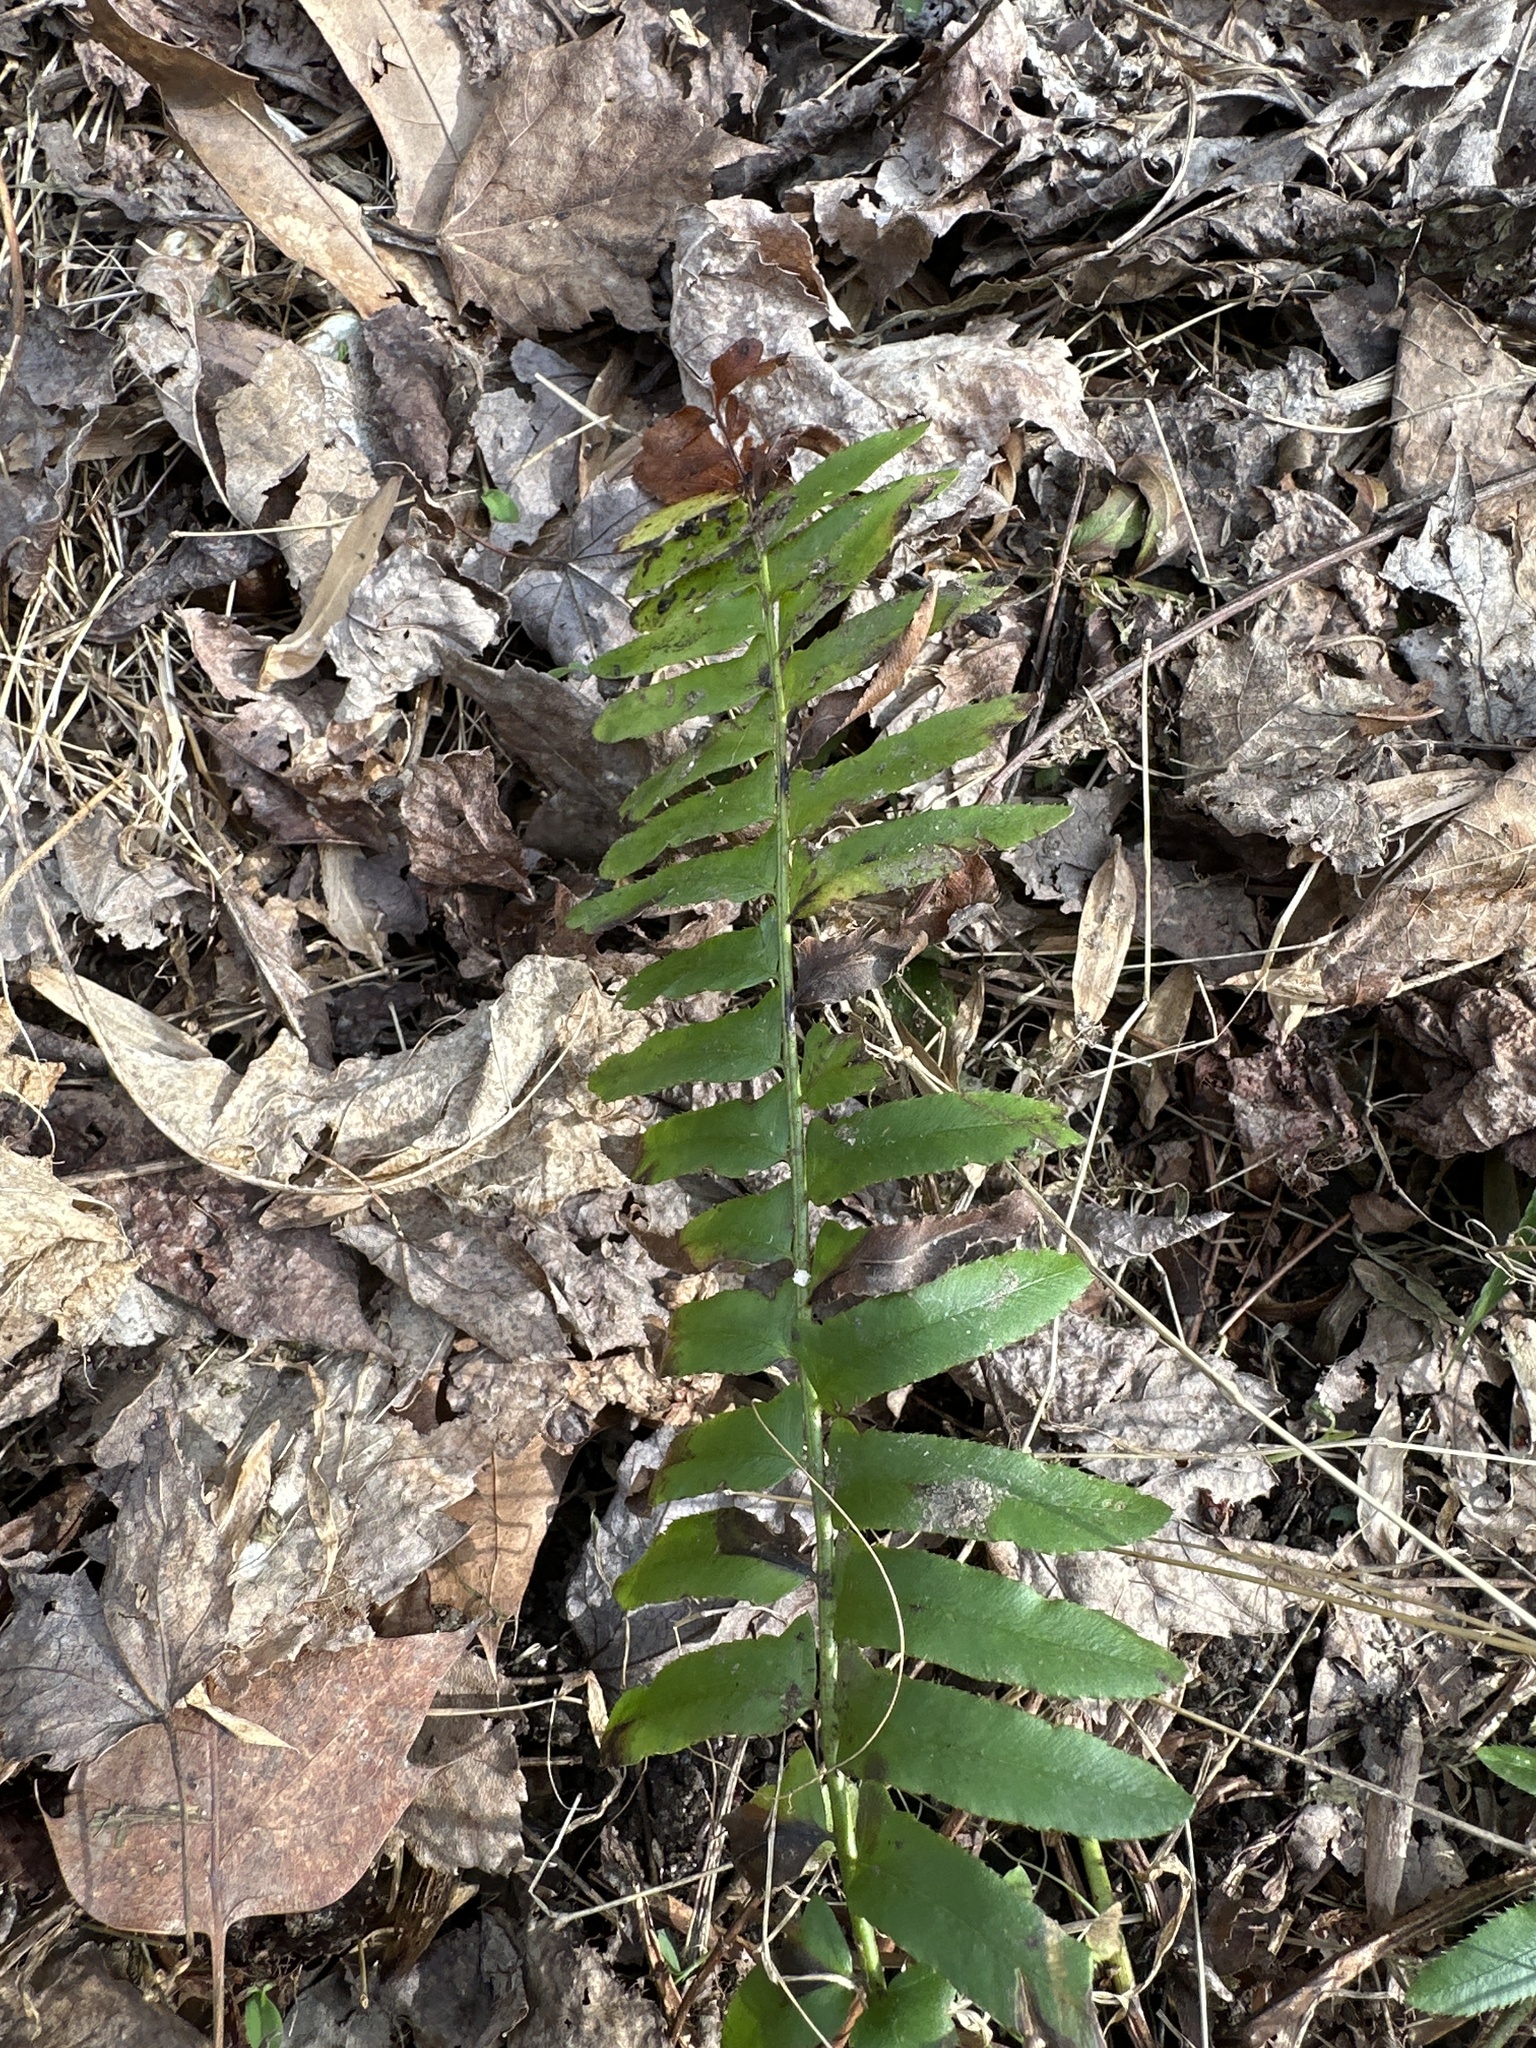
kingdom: Plantae
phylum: Tracheophyta
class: Polypodiopsida
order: Polypodiales
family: Dryopteridaceae
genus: Polystichum
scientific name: Polystichum acrostichoides
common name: Christmas fern
